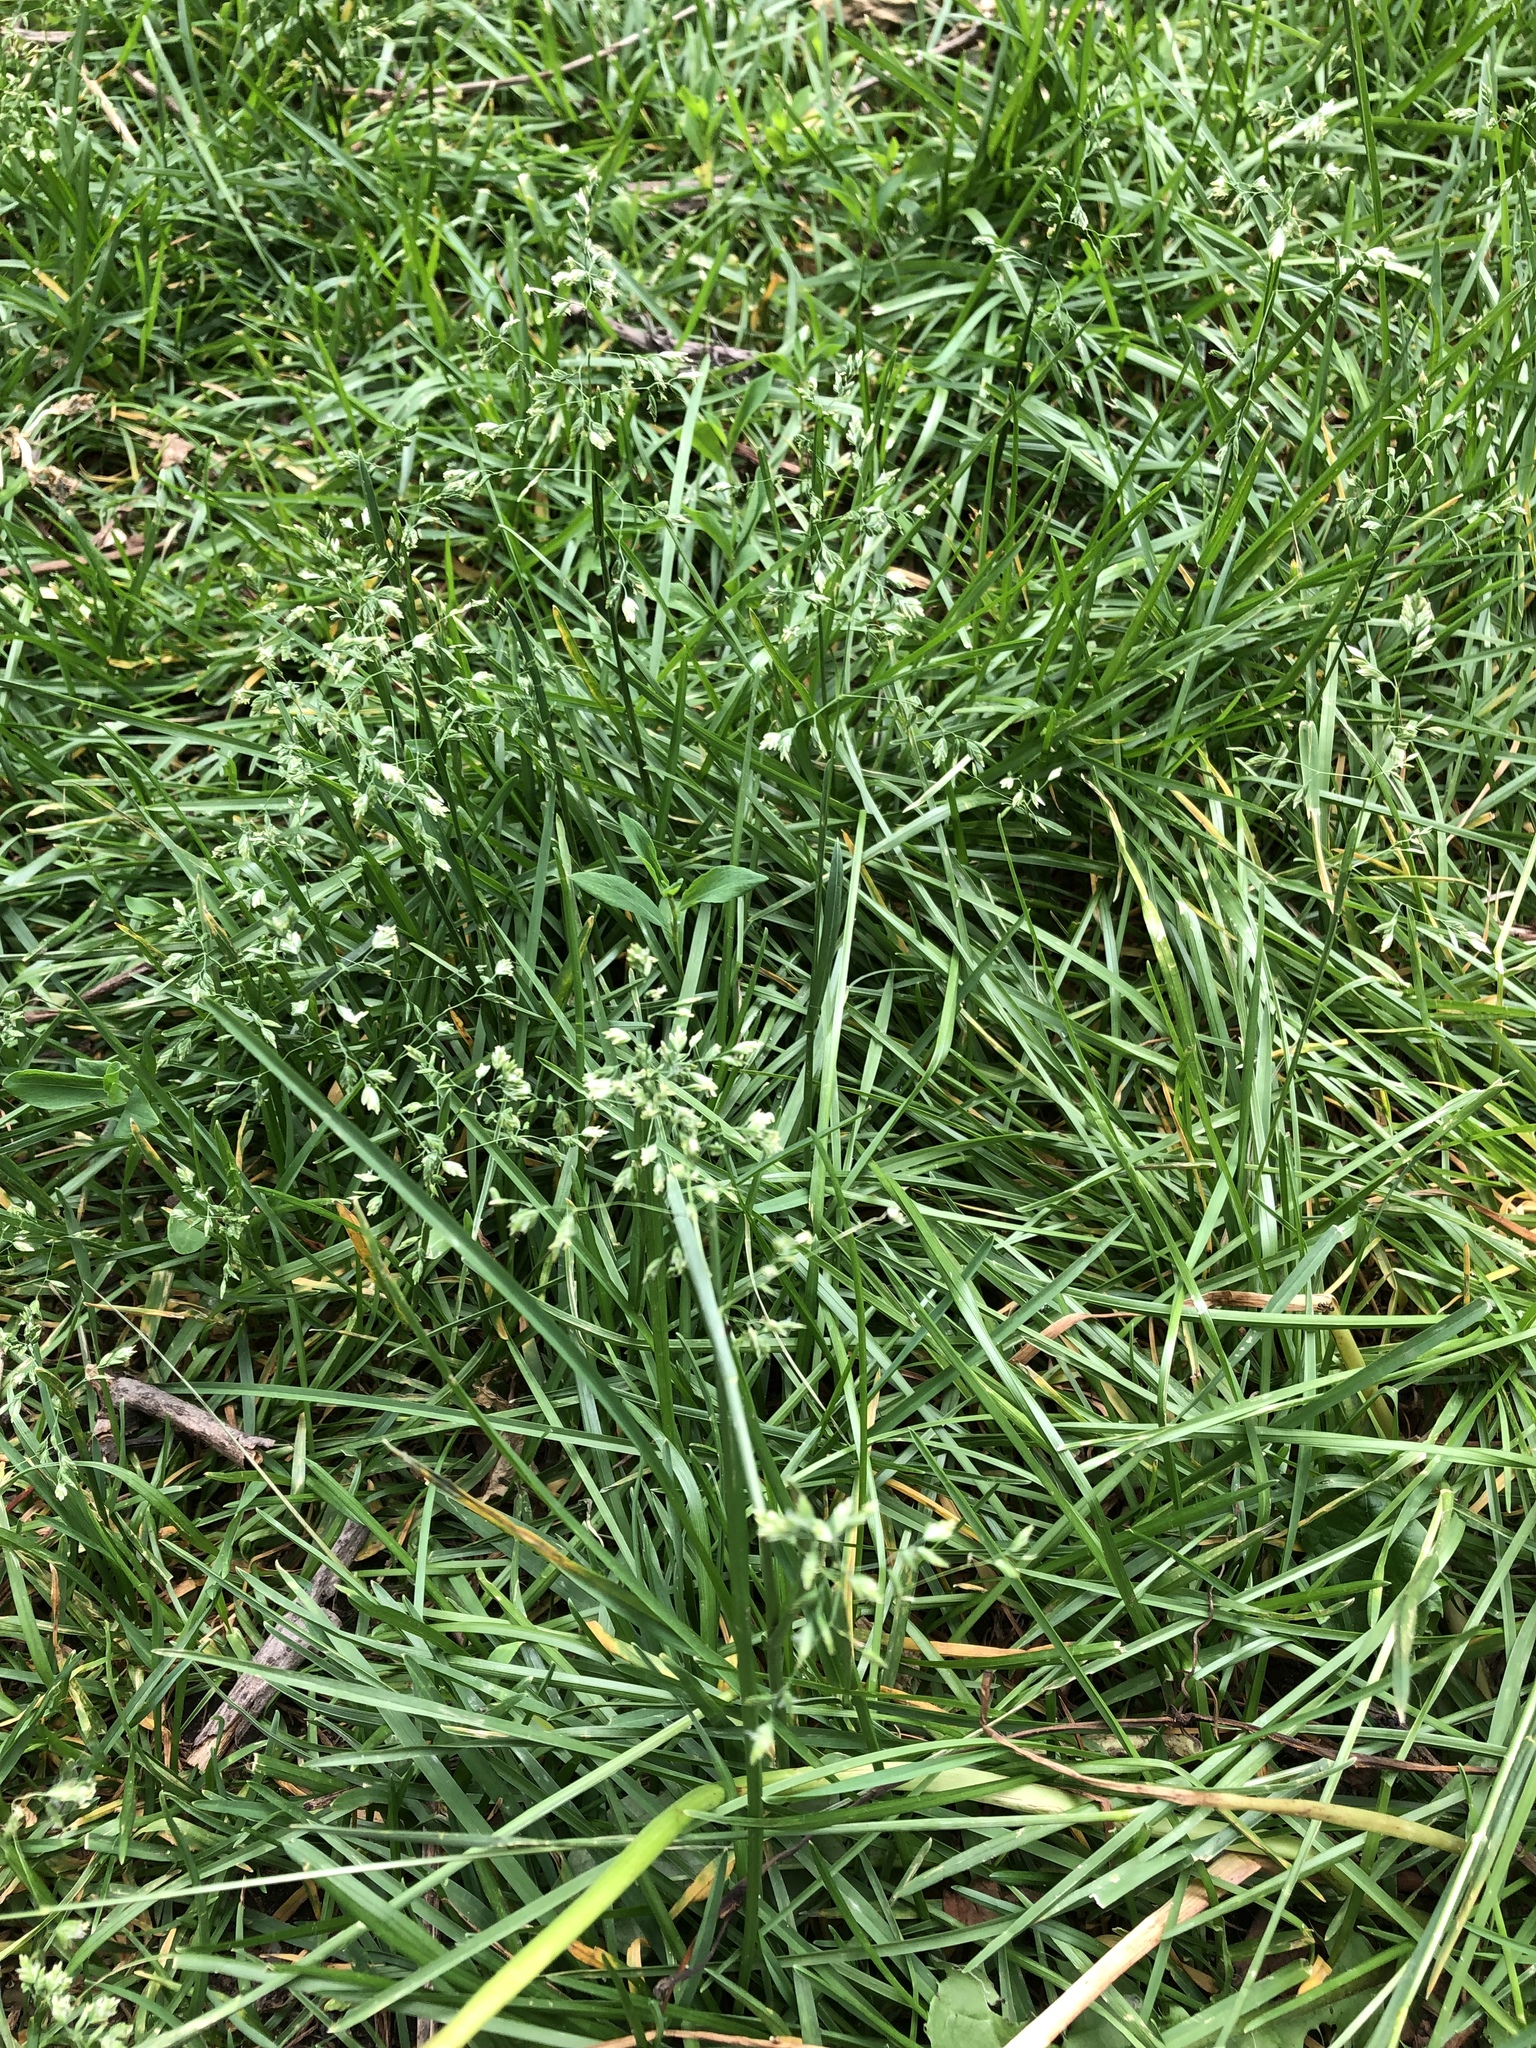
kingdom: Plantae
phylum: Tracheophyta
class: Liliopsida
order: Poales
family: Poaceae
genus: Poa
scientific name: Poa pratensis
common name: Kentucky bluegrass
